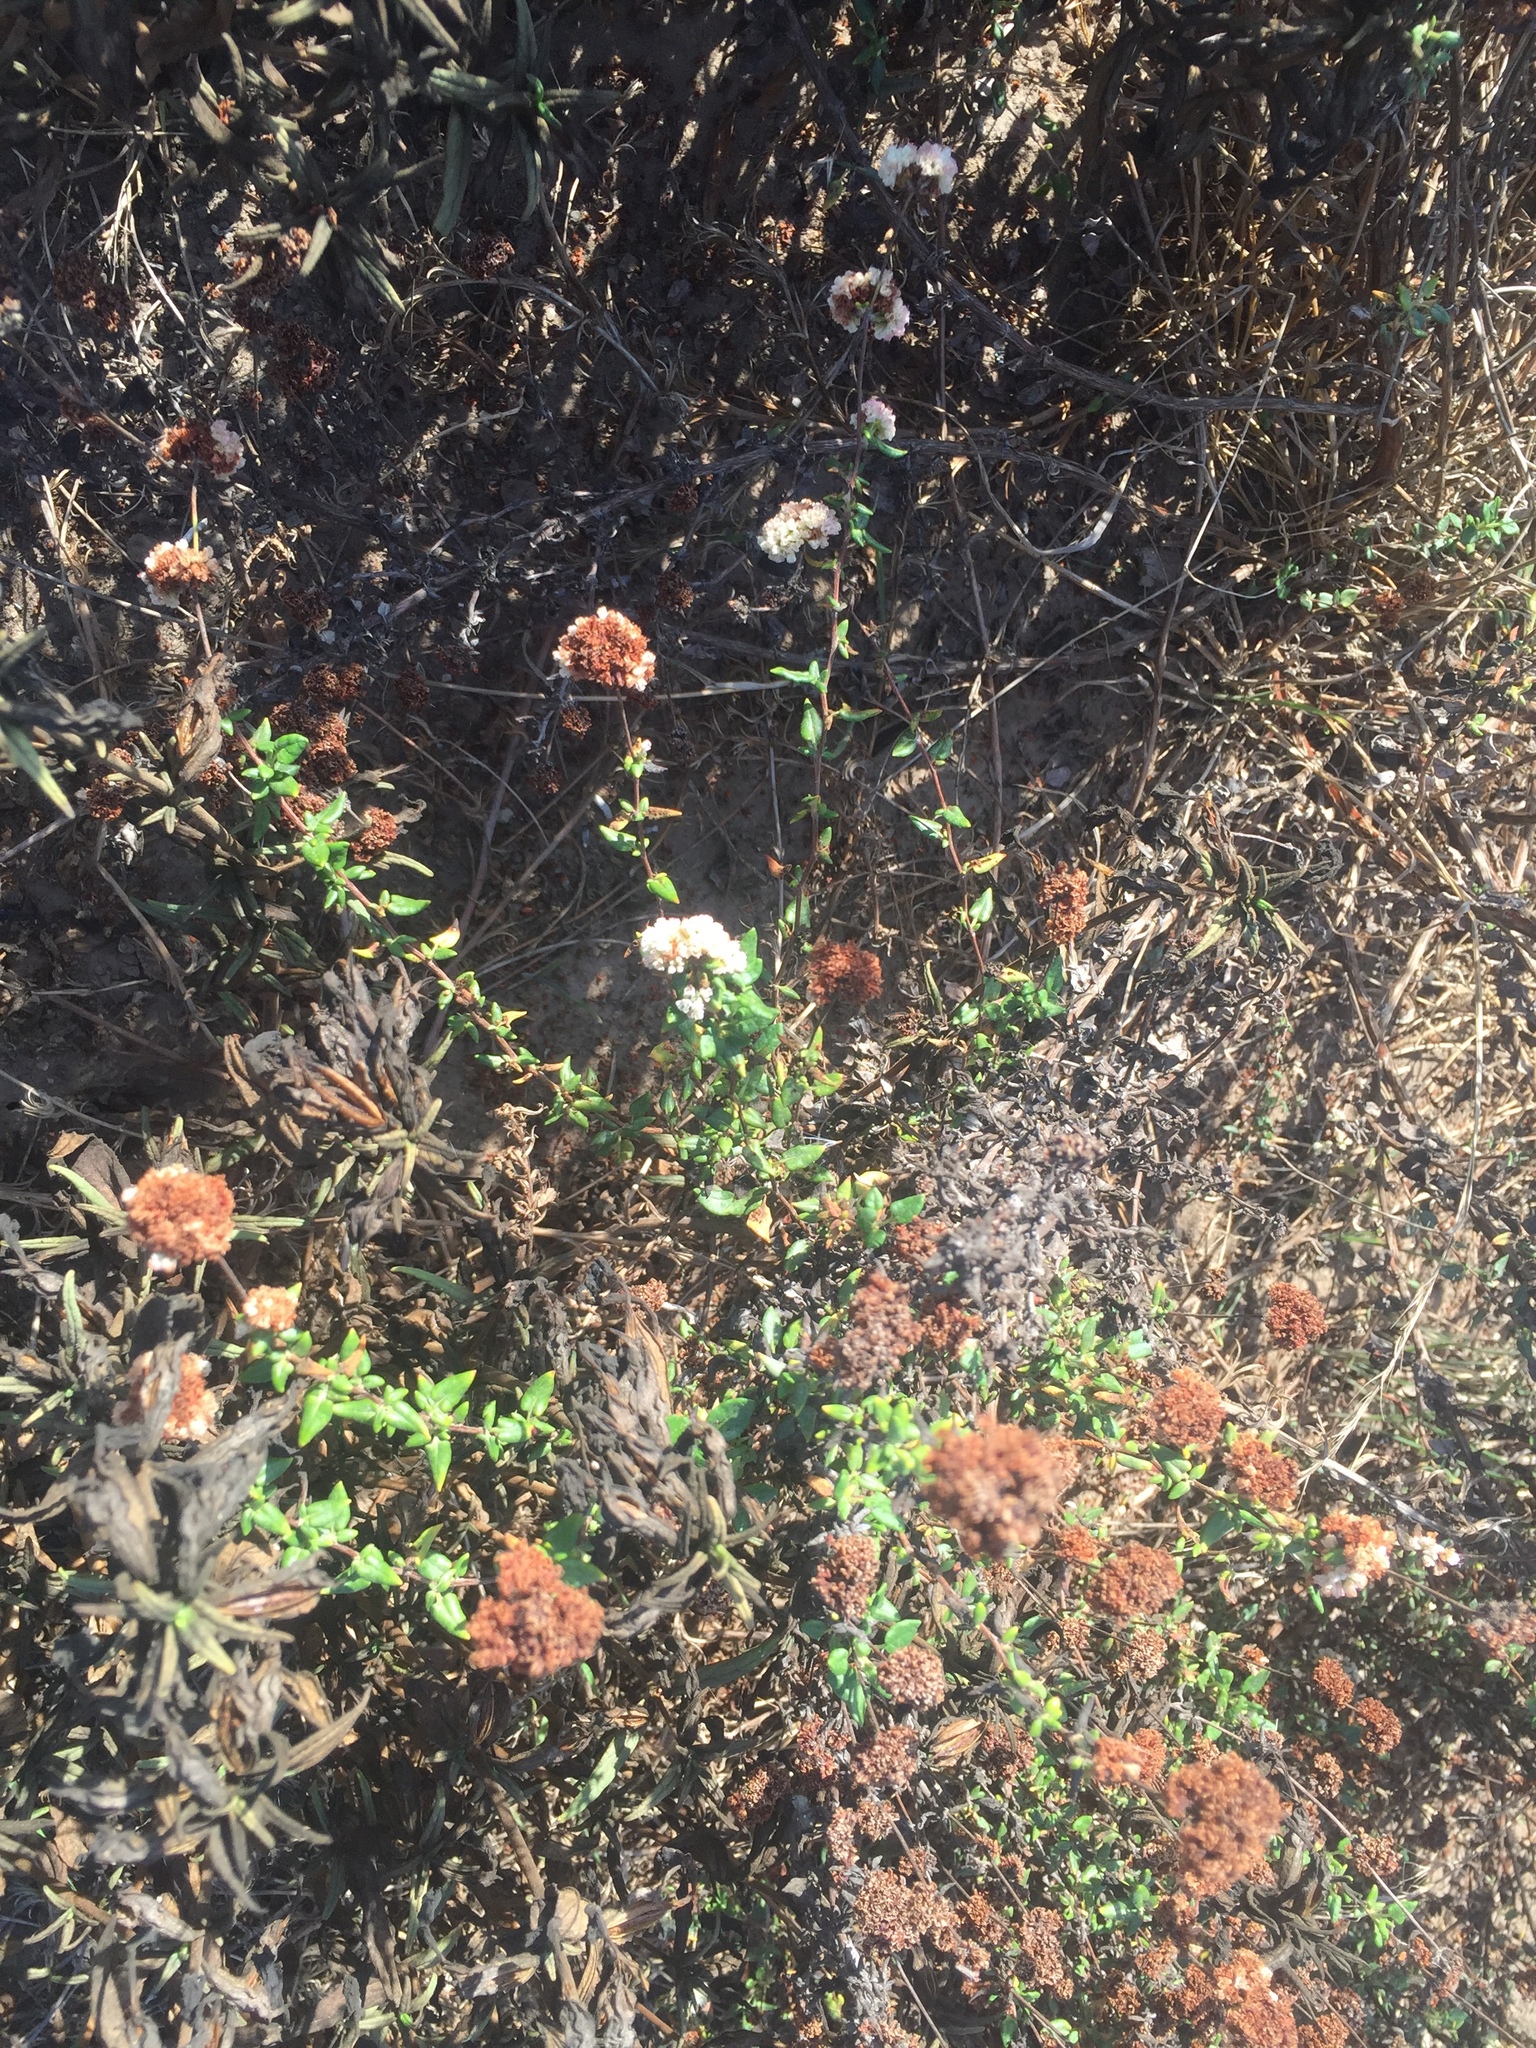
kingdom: Plantae
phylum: Tracheophyta
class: Magnoliopsida
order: Caryophyllales
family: Polygonaceae
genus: Eriogonum
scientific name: Eriogonum fasciculatum
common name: California wild buckwheat
